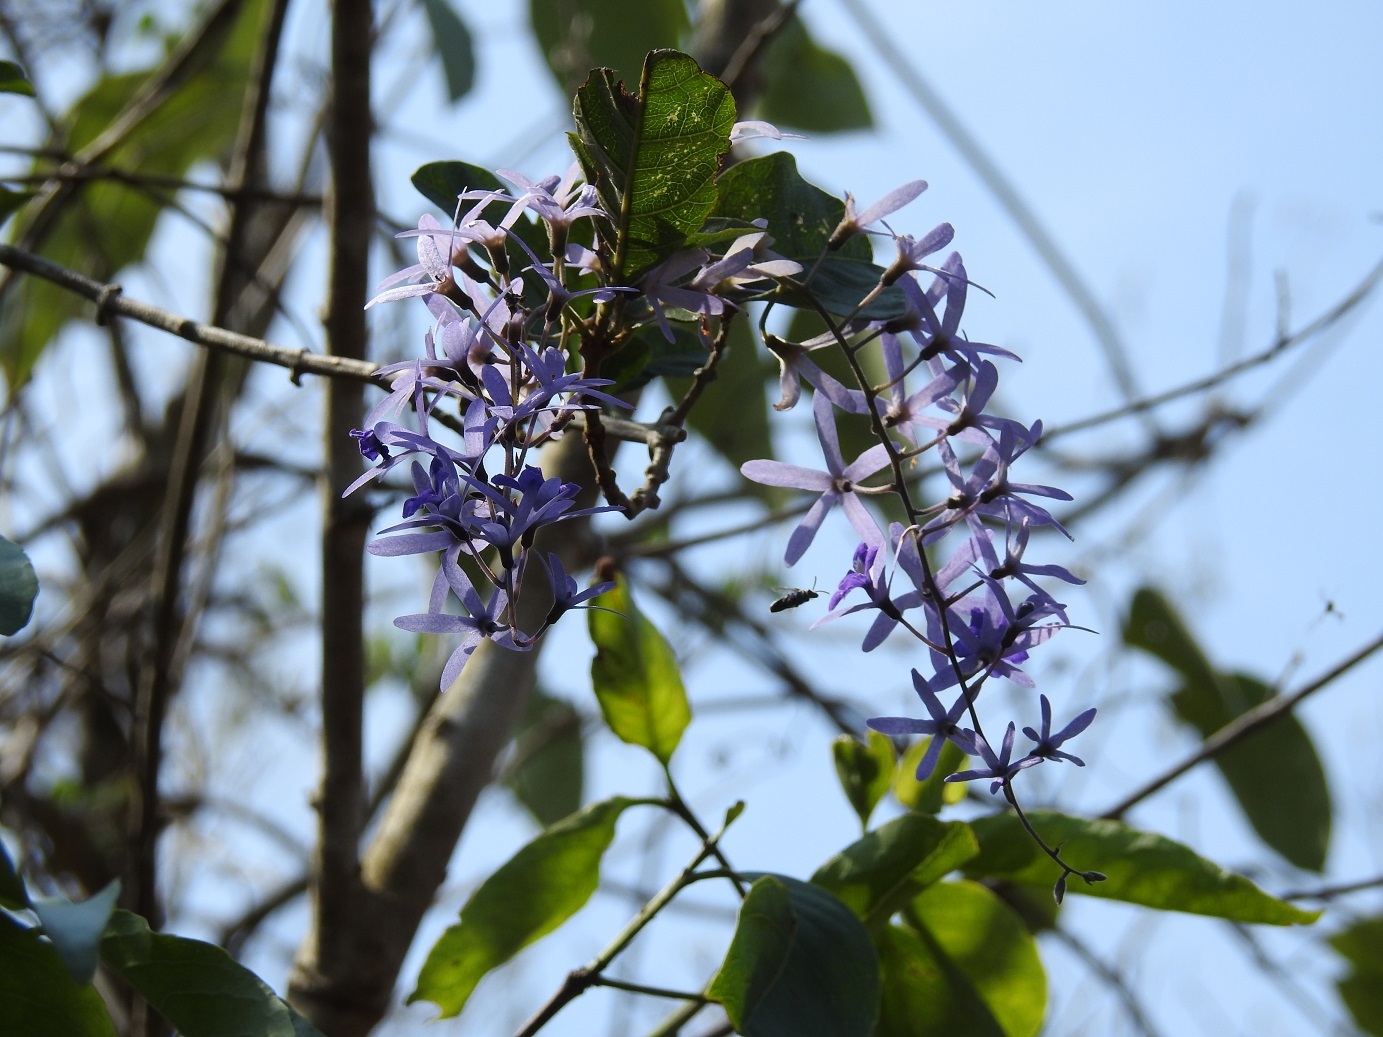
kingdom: Plantae
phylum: Tracheophyta
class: Magnoliopsida
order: Lamiales
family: Verbenaceae
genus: Petrea
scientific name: Petrea volubilis
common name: Queen's-wreath
